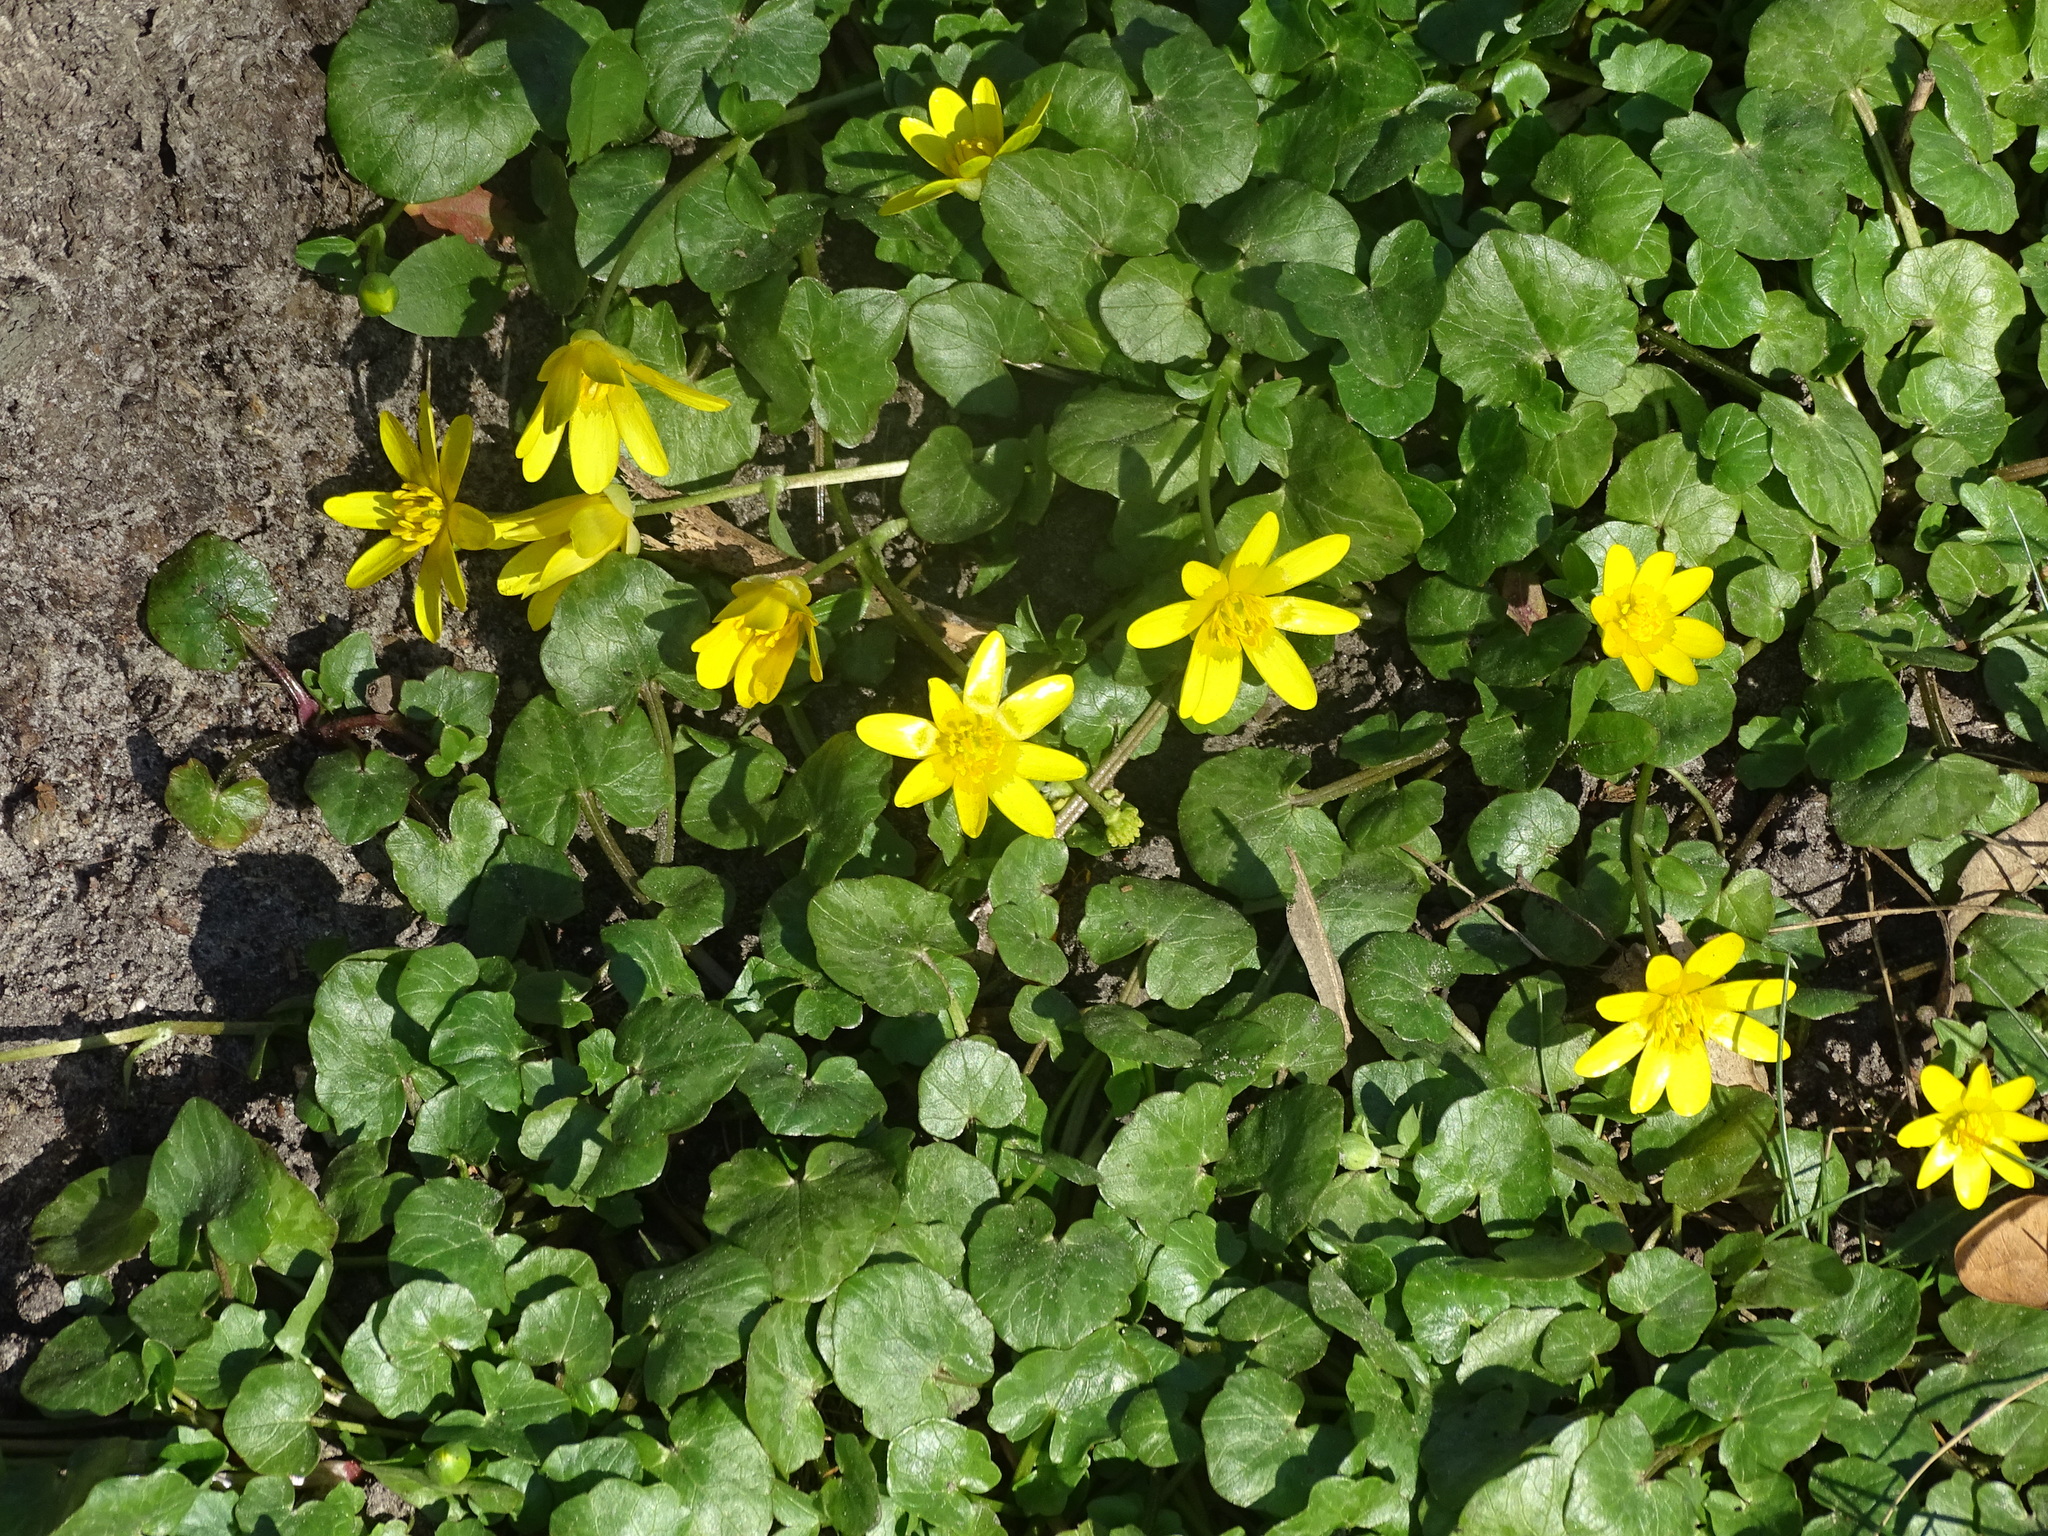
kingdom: Plantae
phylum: Tracheophyta
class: Magnoliopsida
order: Ranunculales
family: Ranunculaceae
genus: Ficaria
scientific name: Ficaria verna
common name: Lesser celandine
